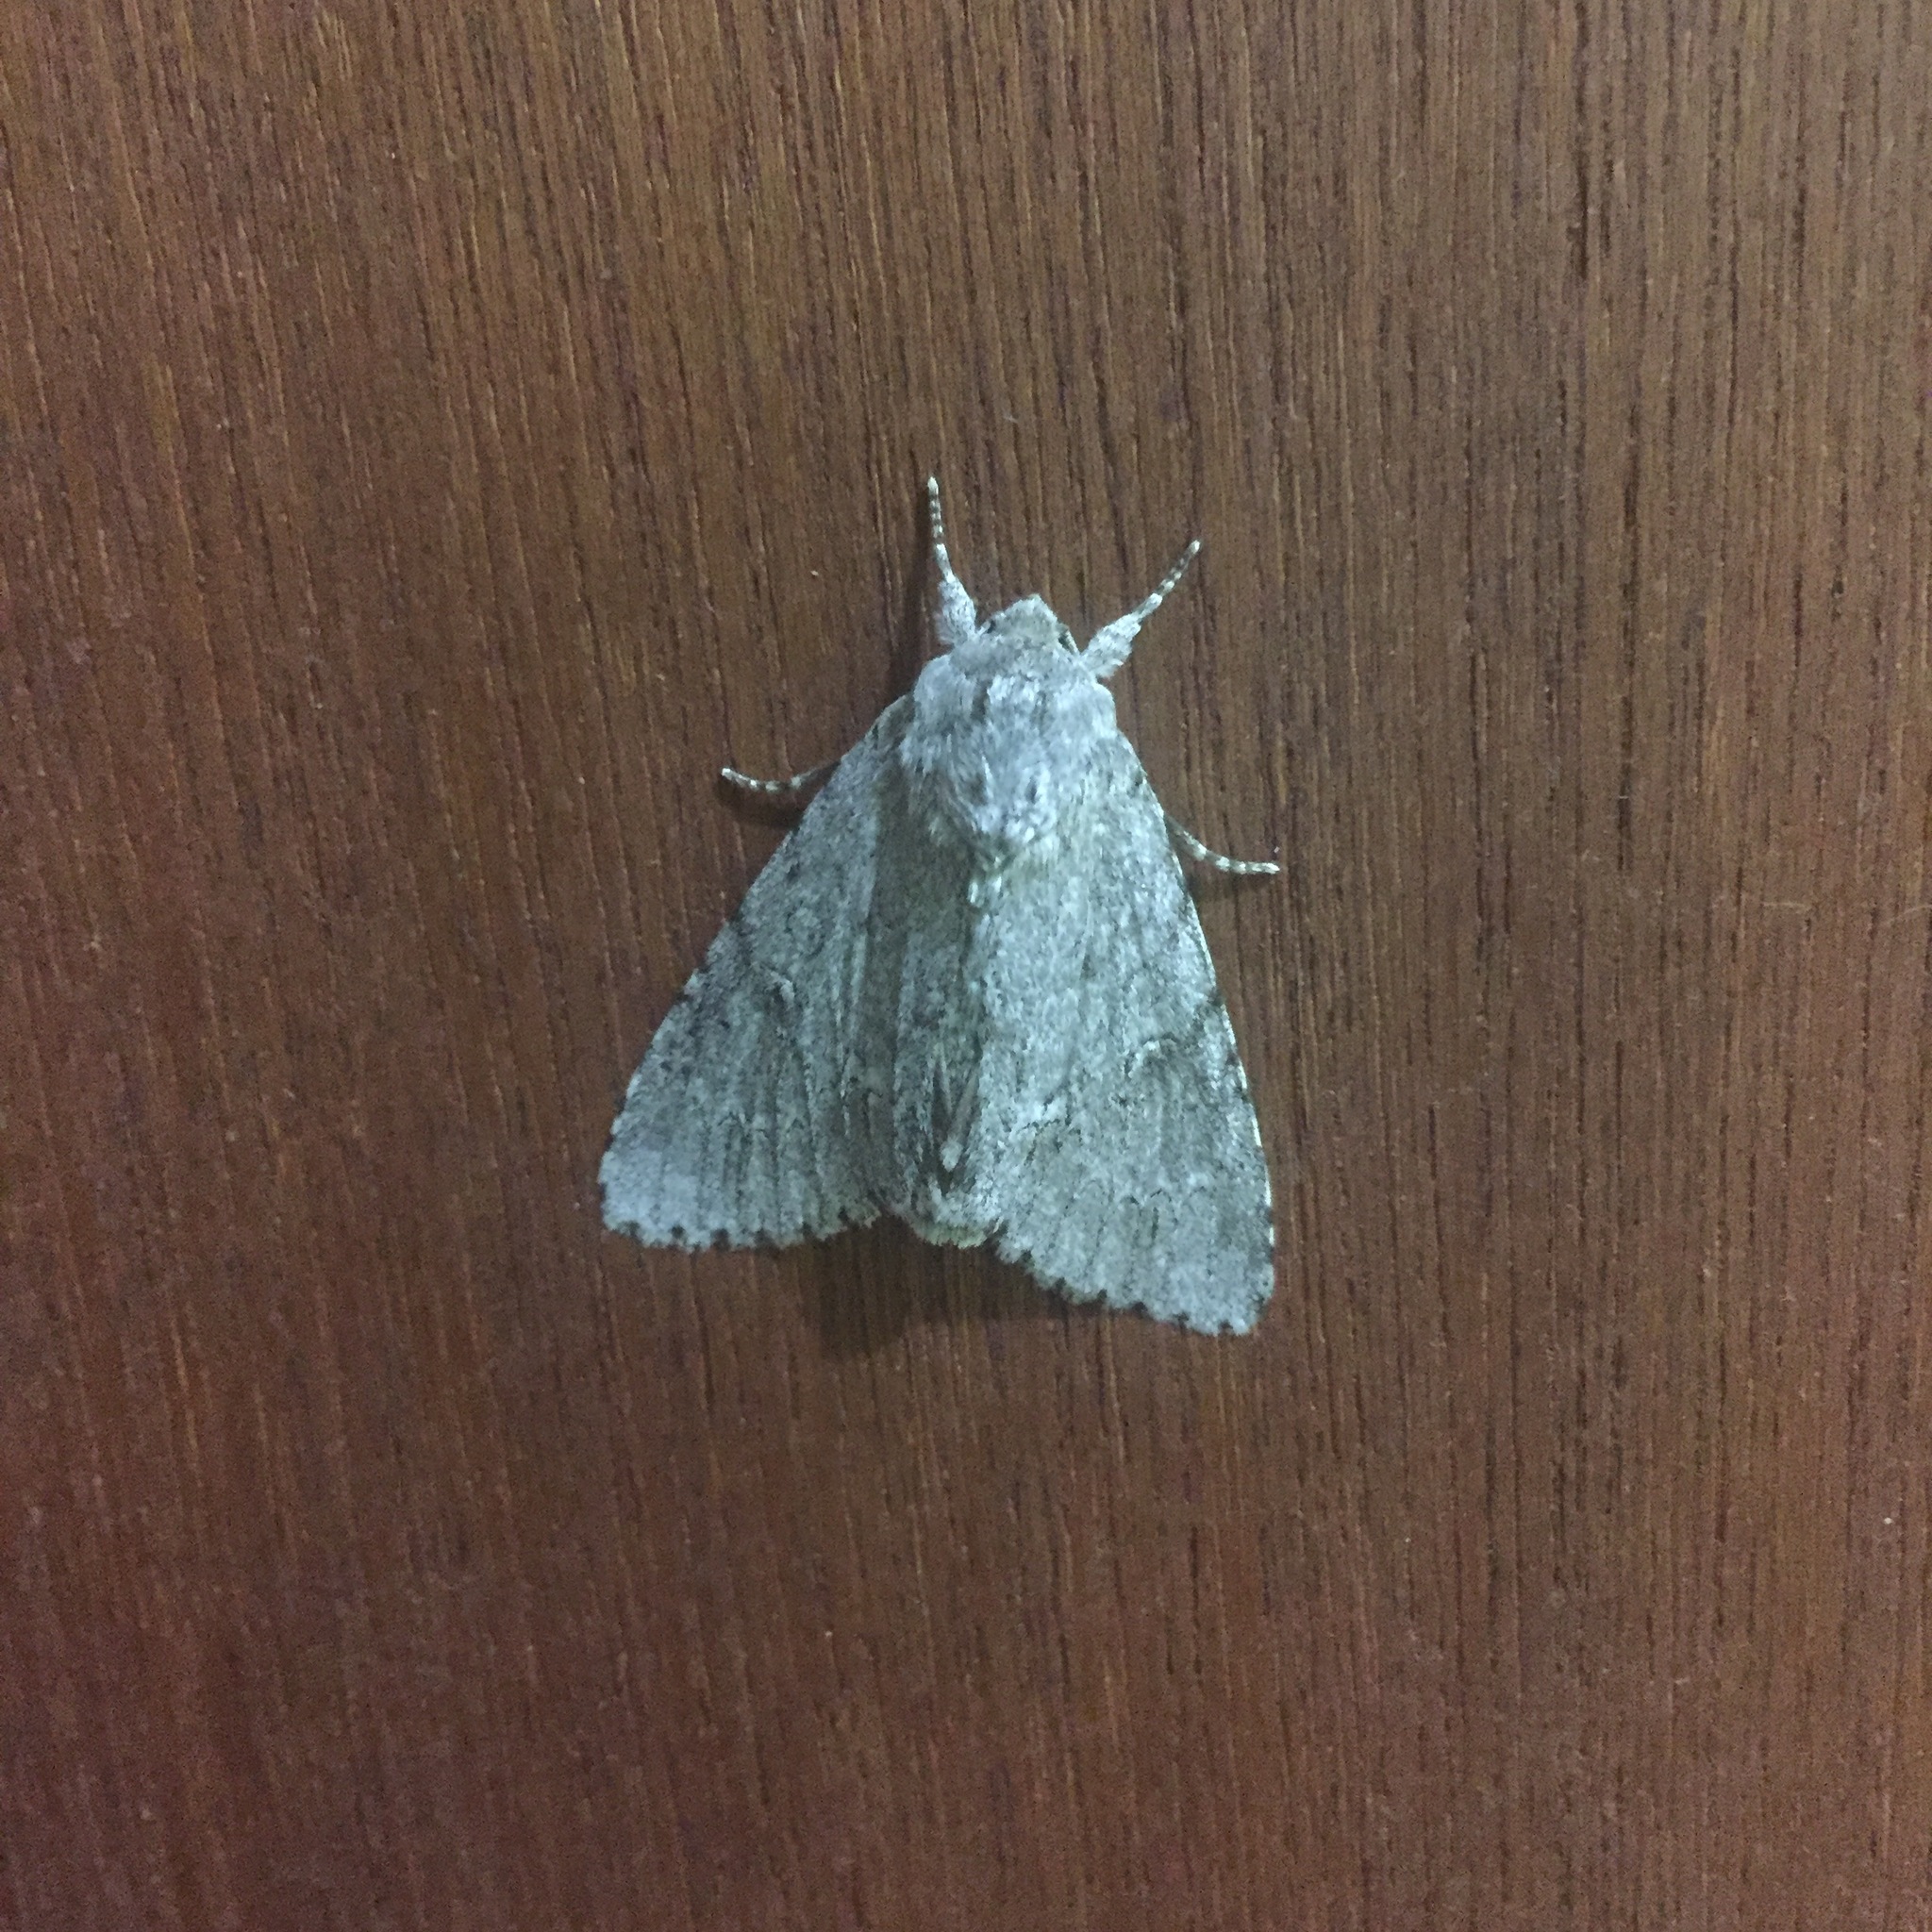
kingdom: Animalia
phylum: Arthropoda
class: Insecta
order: Lepidoptera
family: Noctuidae
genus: Acronicta
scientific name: Acronicta americana
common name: American dagger
